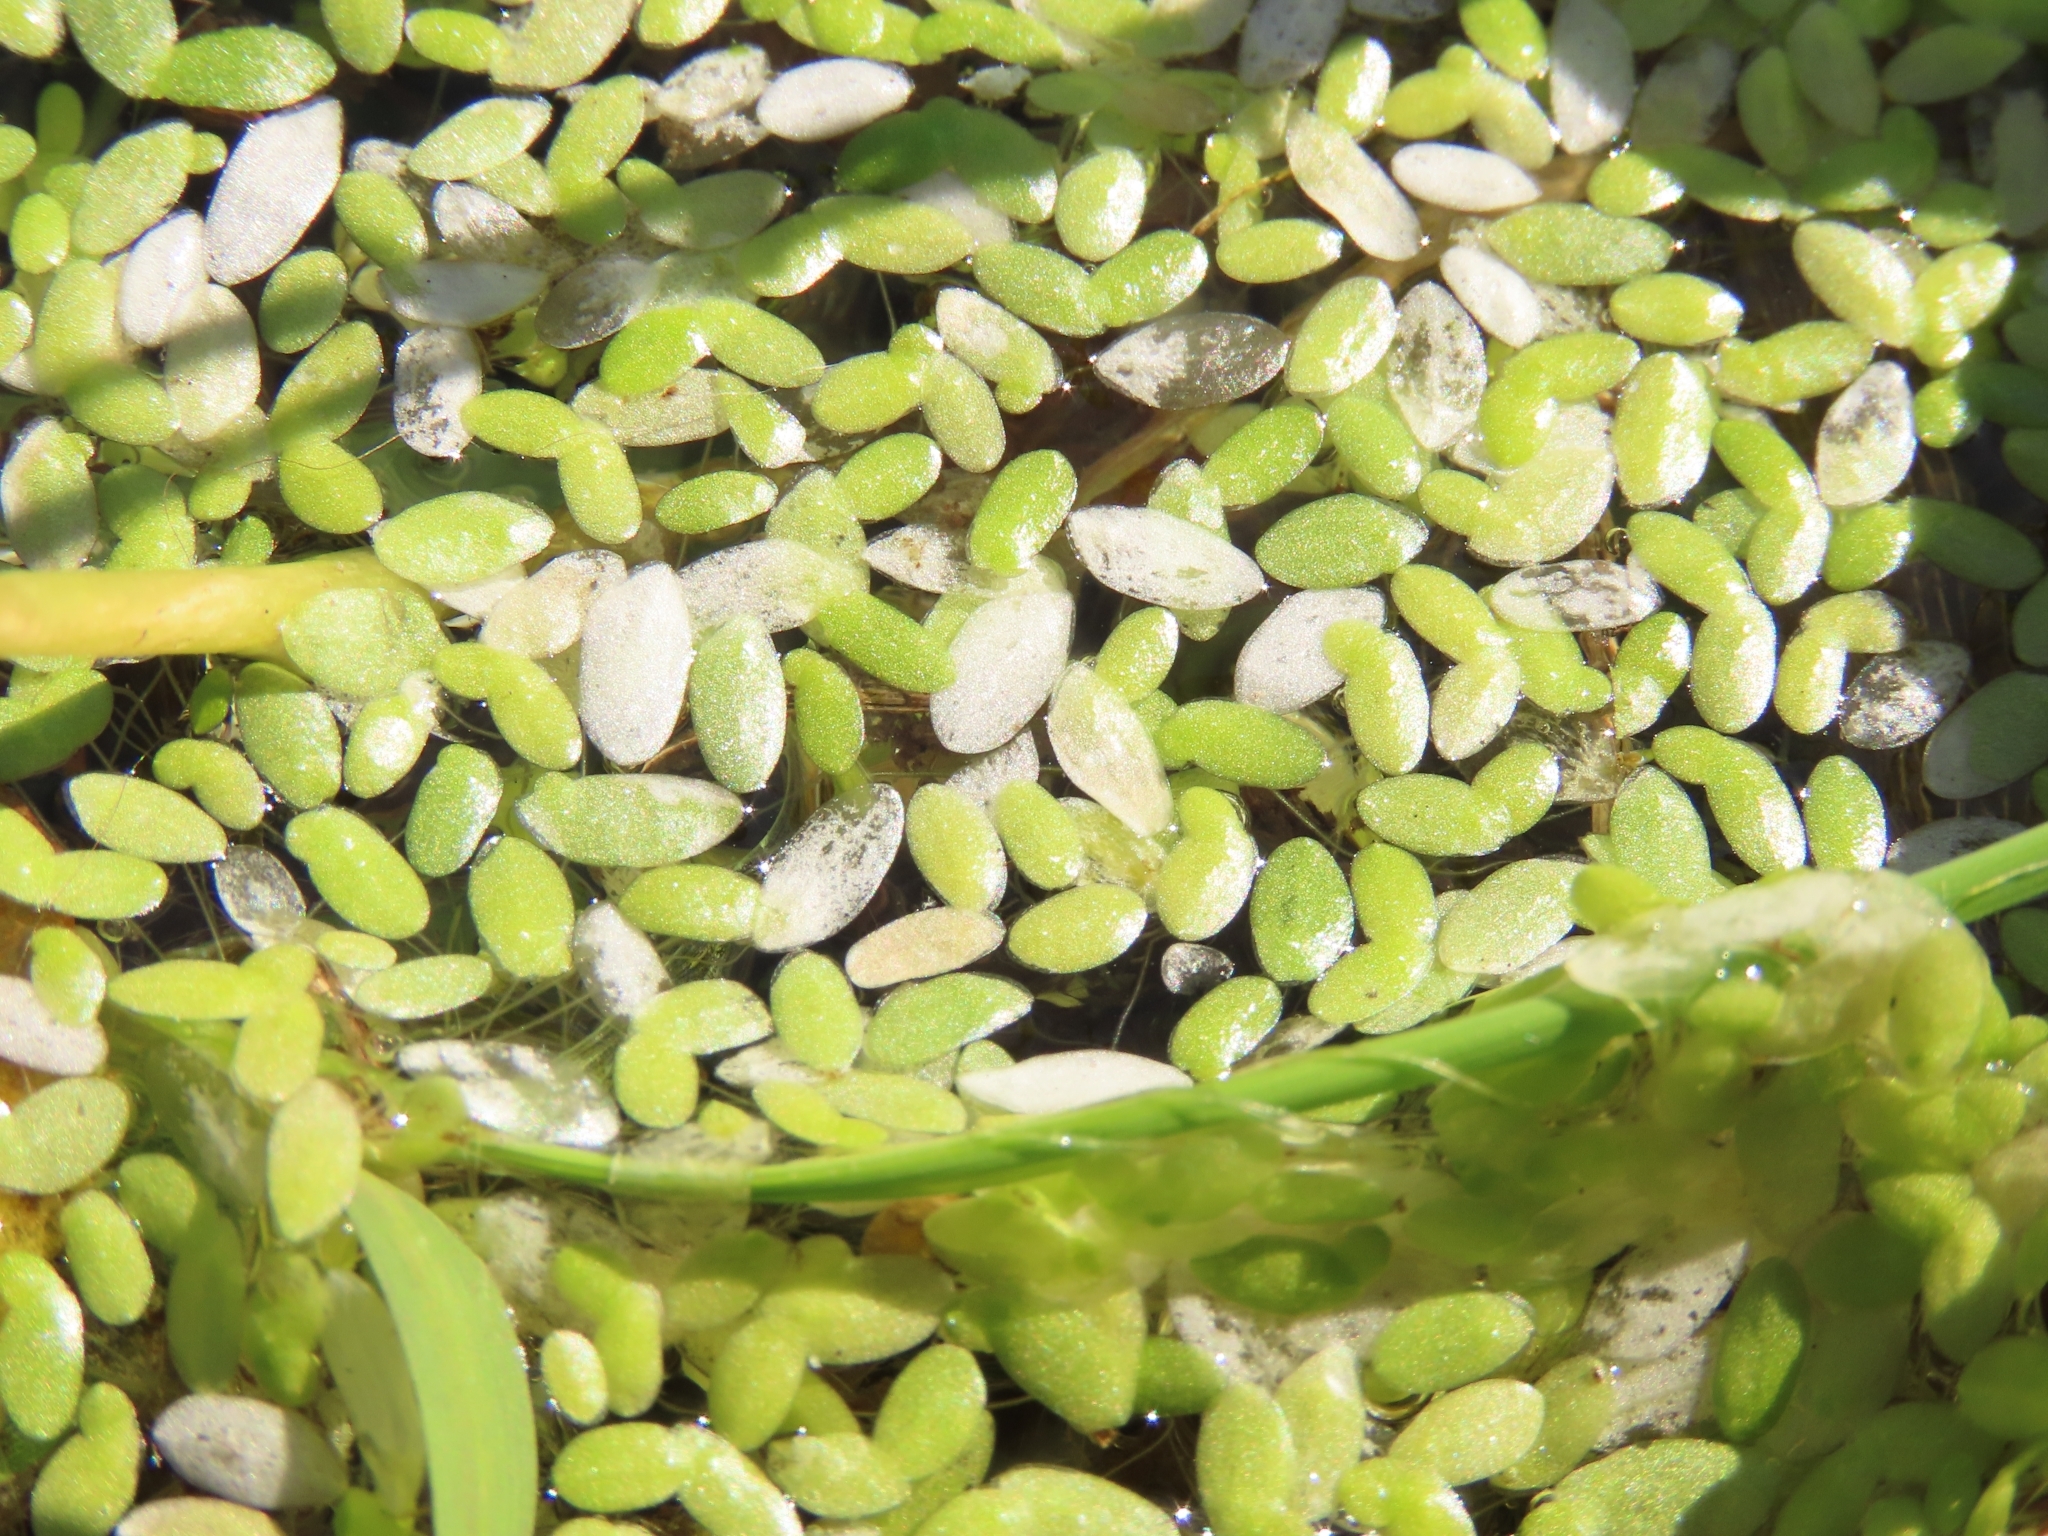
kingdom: Plantae
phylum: Tracheophyta
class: Liliopsida
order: Alismatales
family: Araceae
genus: Lemna
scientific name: Lemna aequinoctialis
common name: Duckweed
